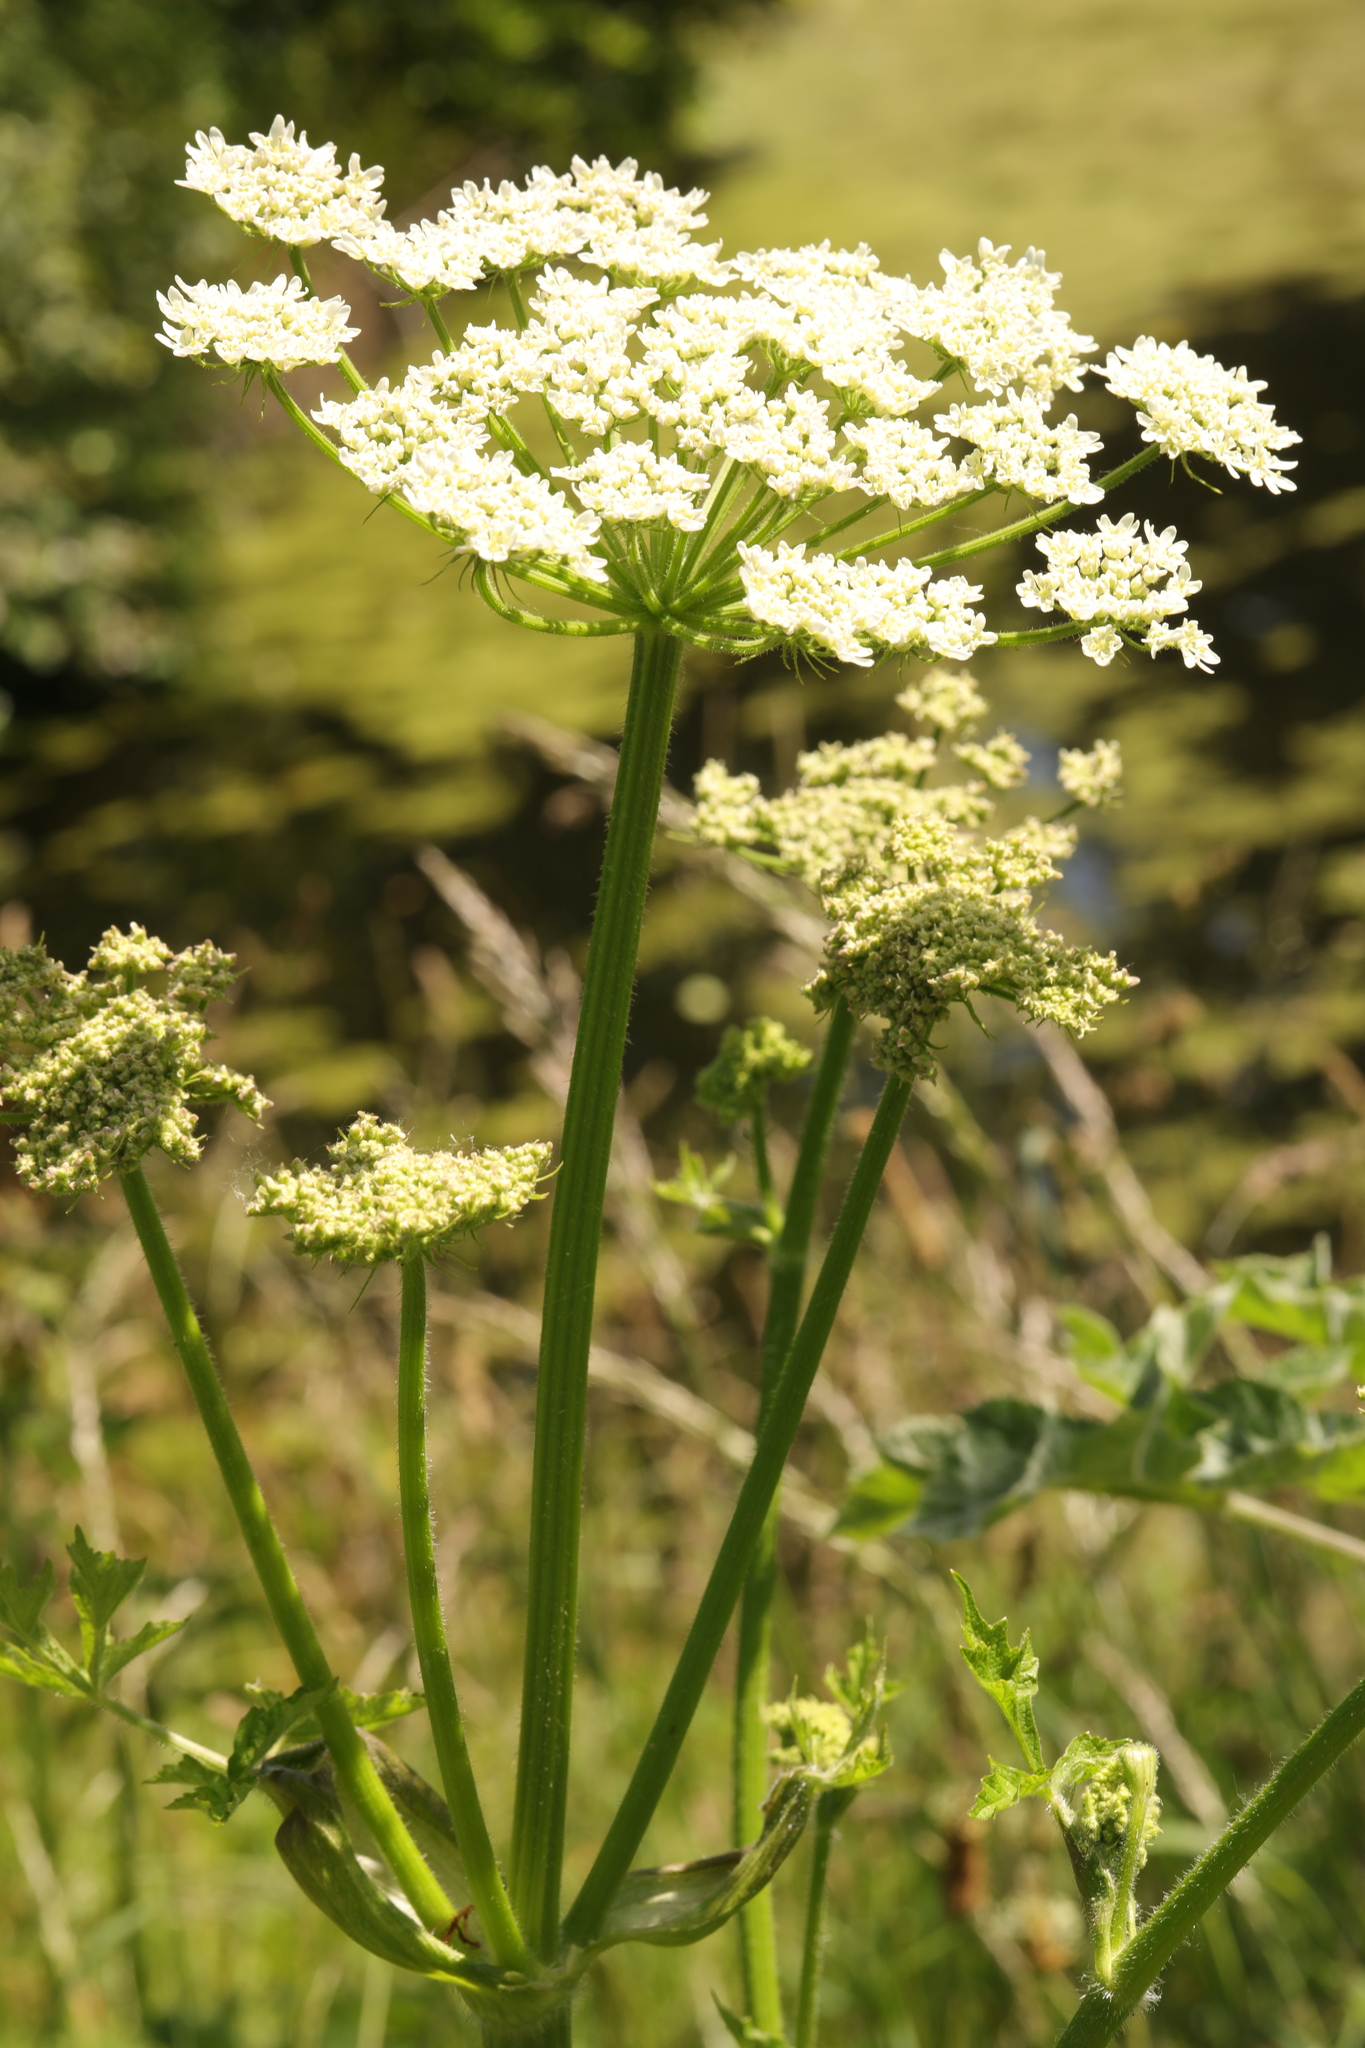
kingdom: Plantae
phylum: Tracheophyta
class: Magnoliopsida
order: Apiales
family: Apiaceae
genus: Heracleum
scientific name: Heracleum sphondylium
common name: Hogweed
